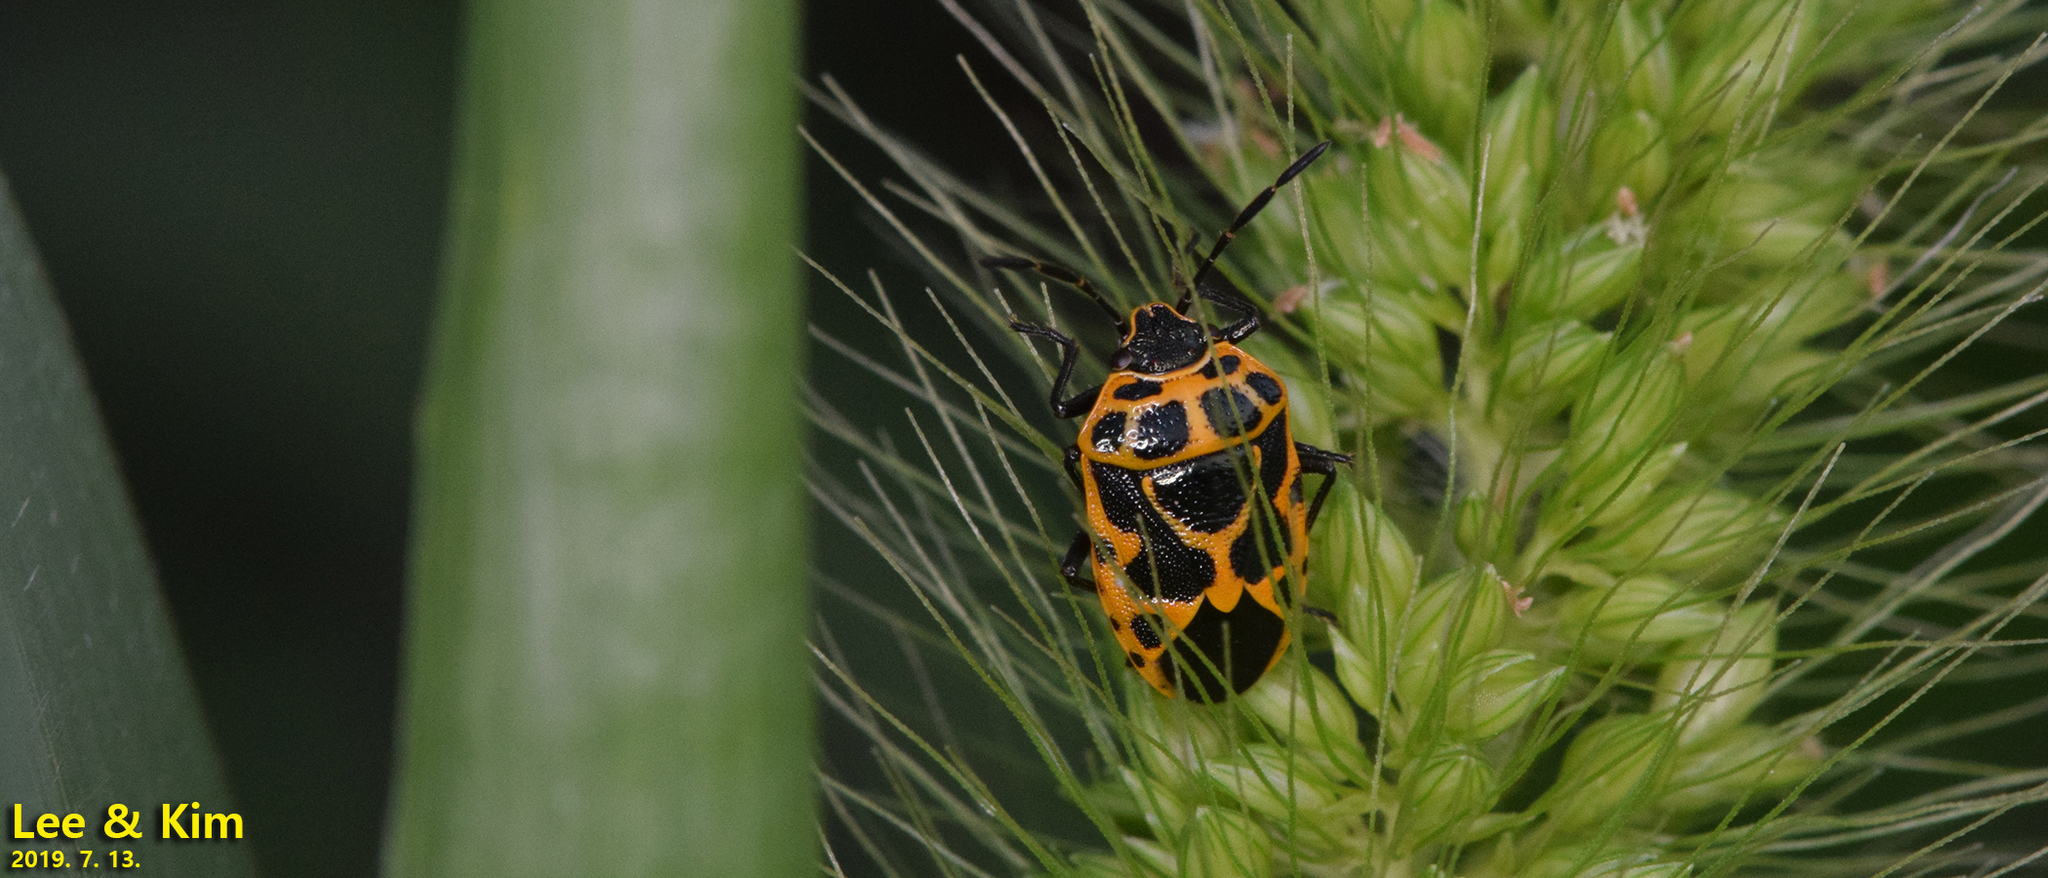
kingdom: Animalia
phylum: Arthropoda
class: Insecta
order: Hemiptera
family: Pentatomidae
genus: Eurydema
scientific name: Eurydema dominulus
